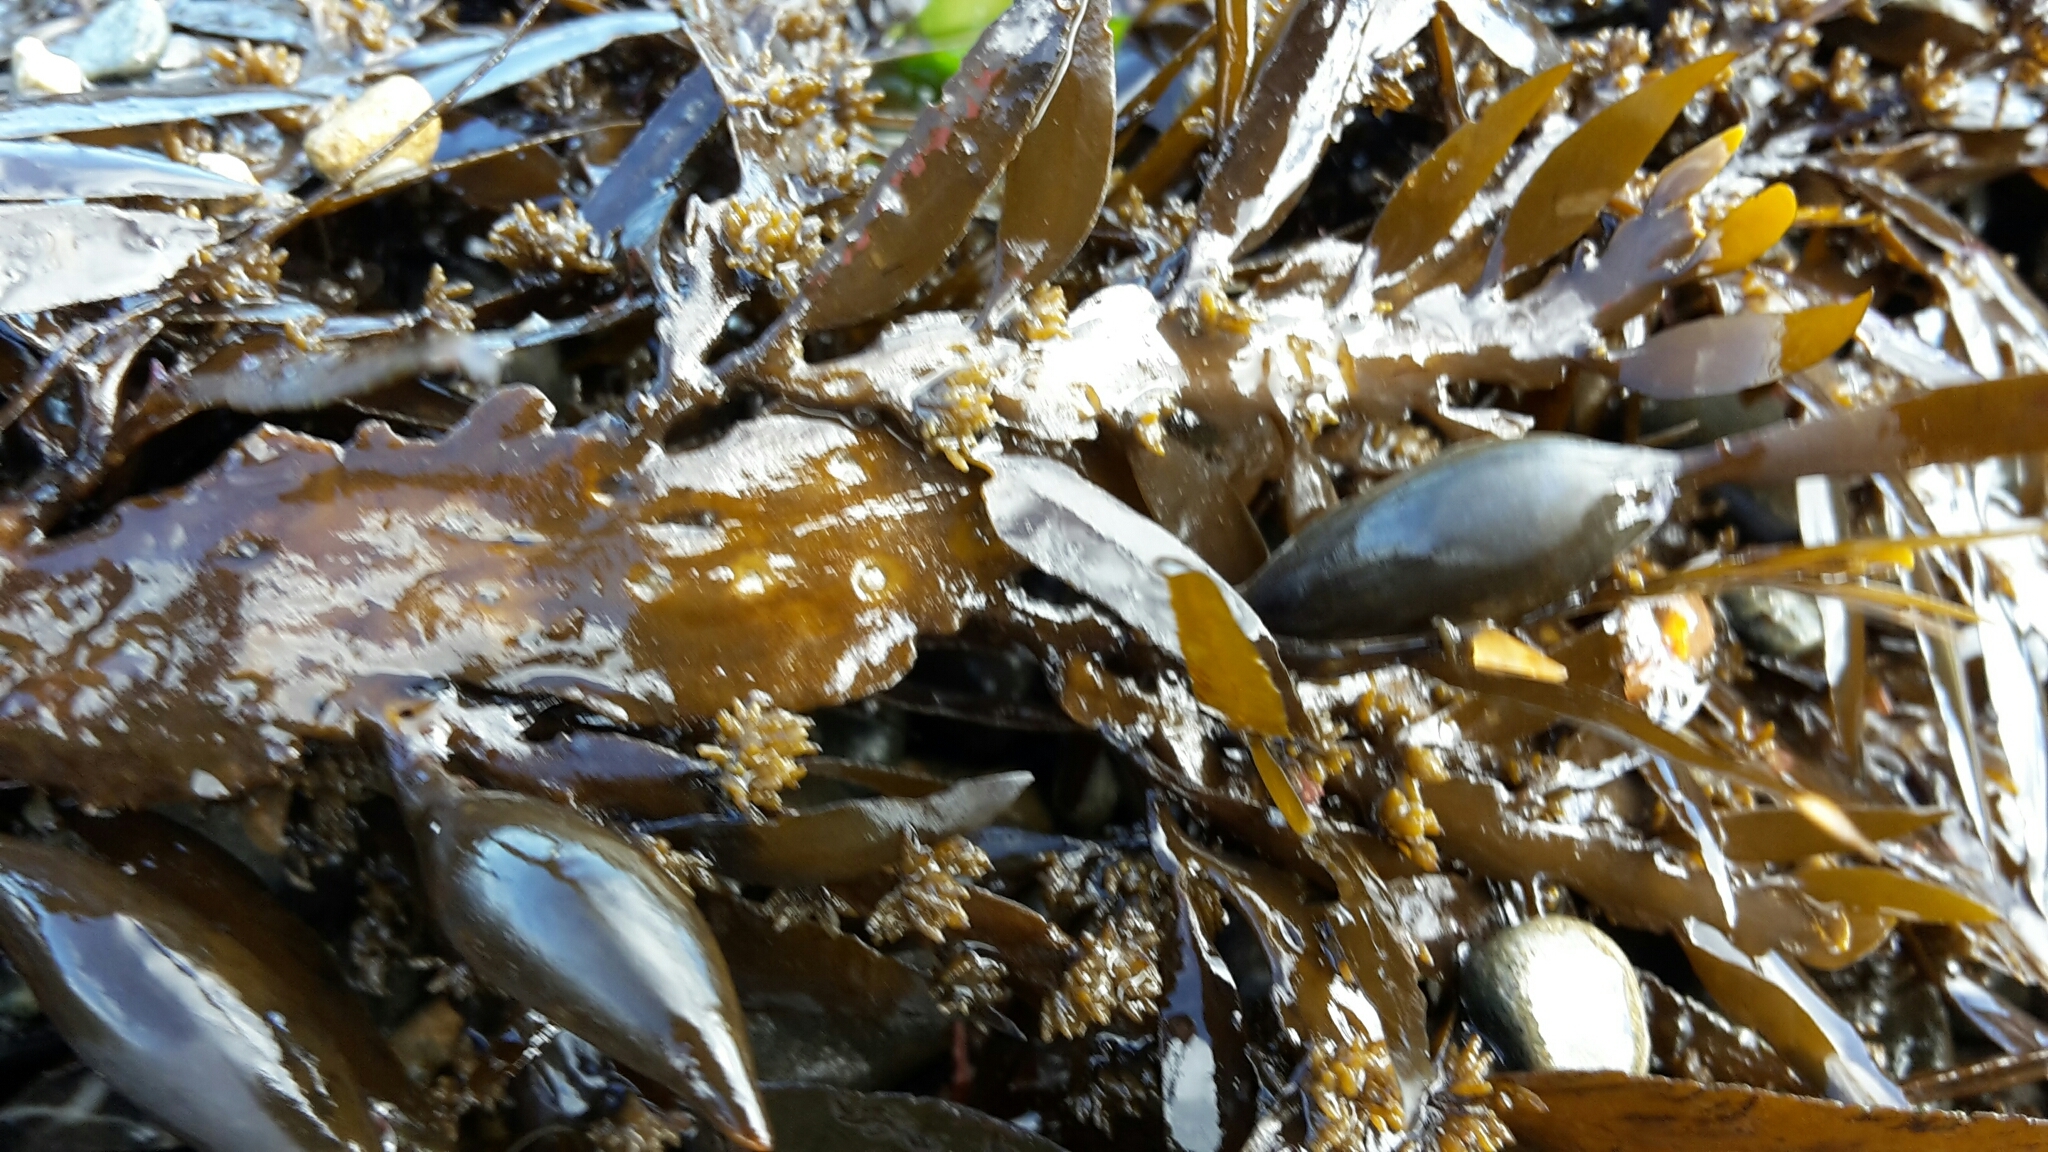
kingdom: Chromista
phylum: Ochrophyta
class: Phaeophyceae
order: Fucales
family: Sargassaceae
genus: Carpophyllum
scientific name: Carpophyllum maschalocarpum
